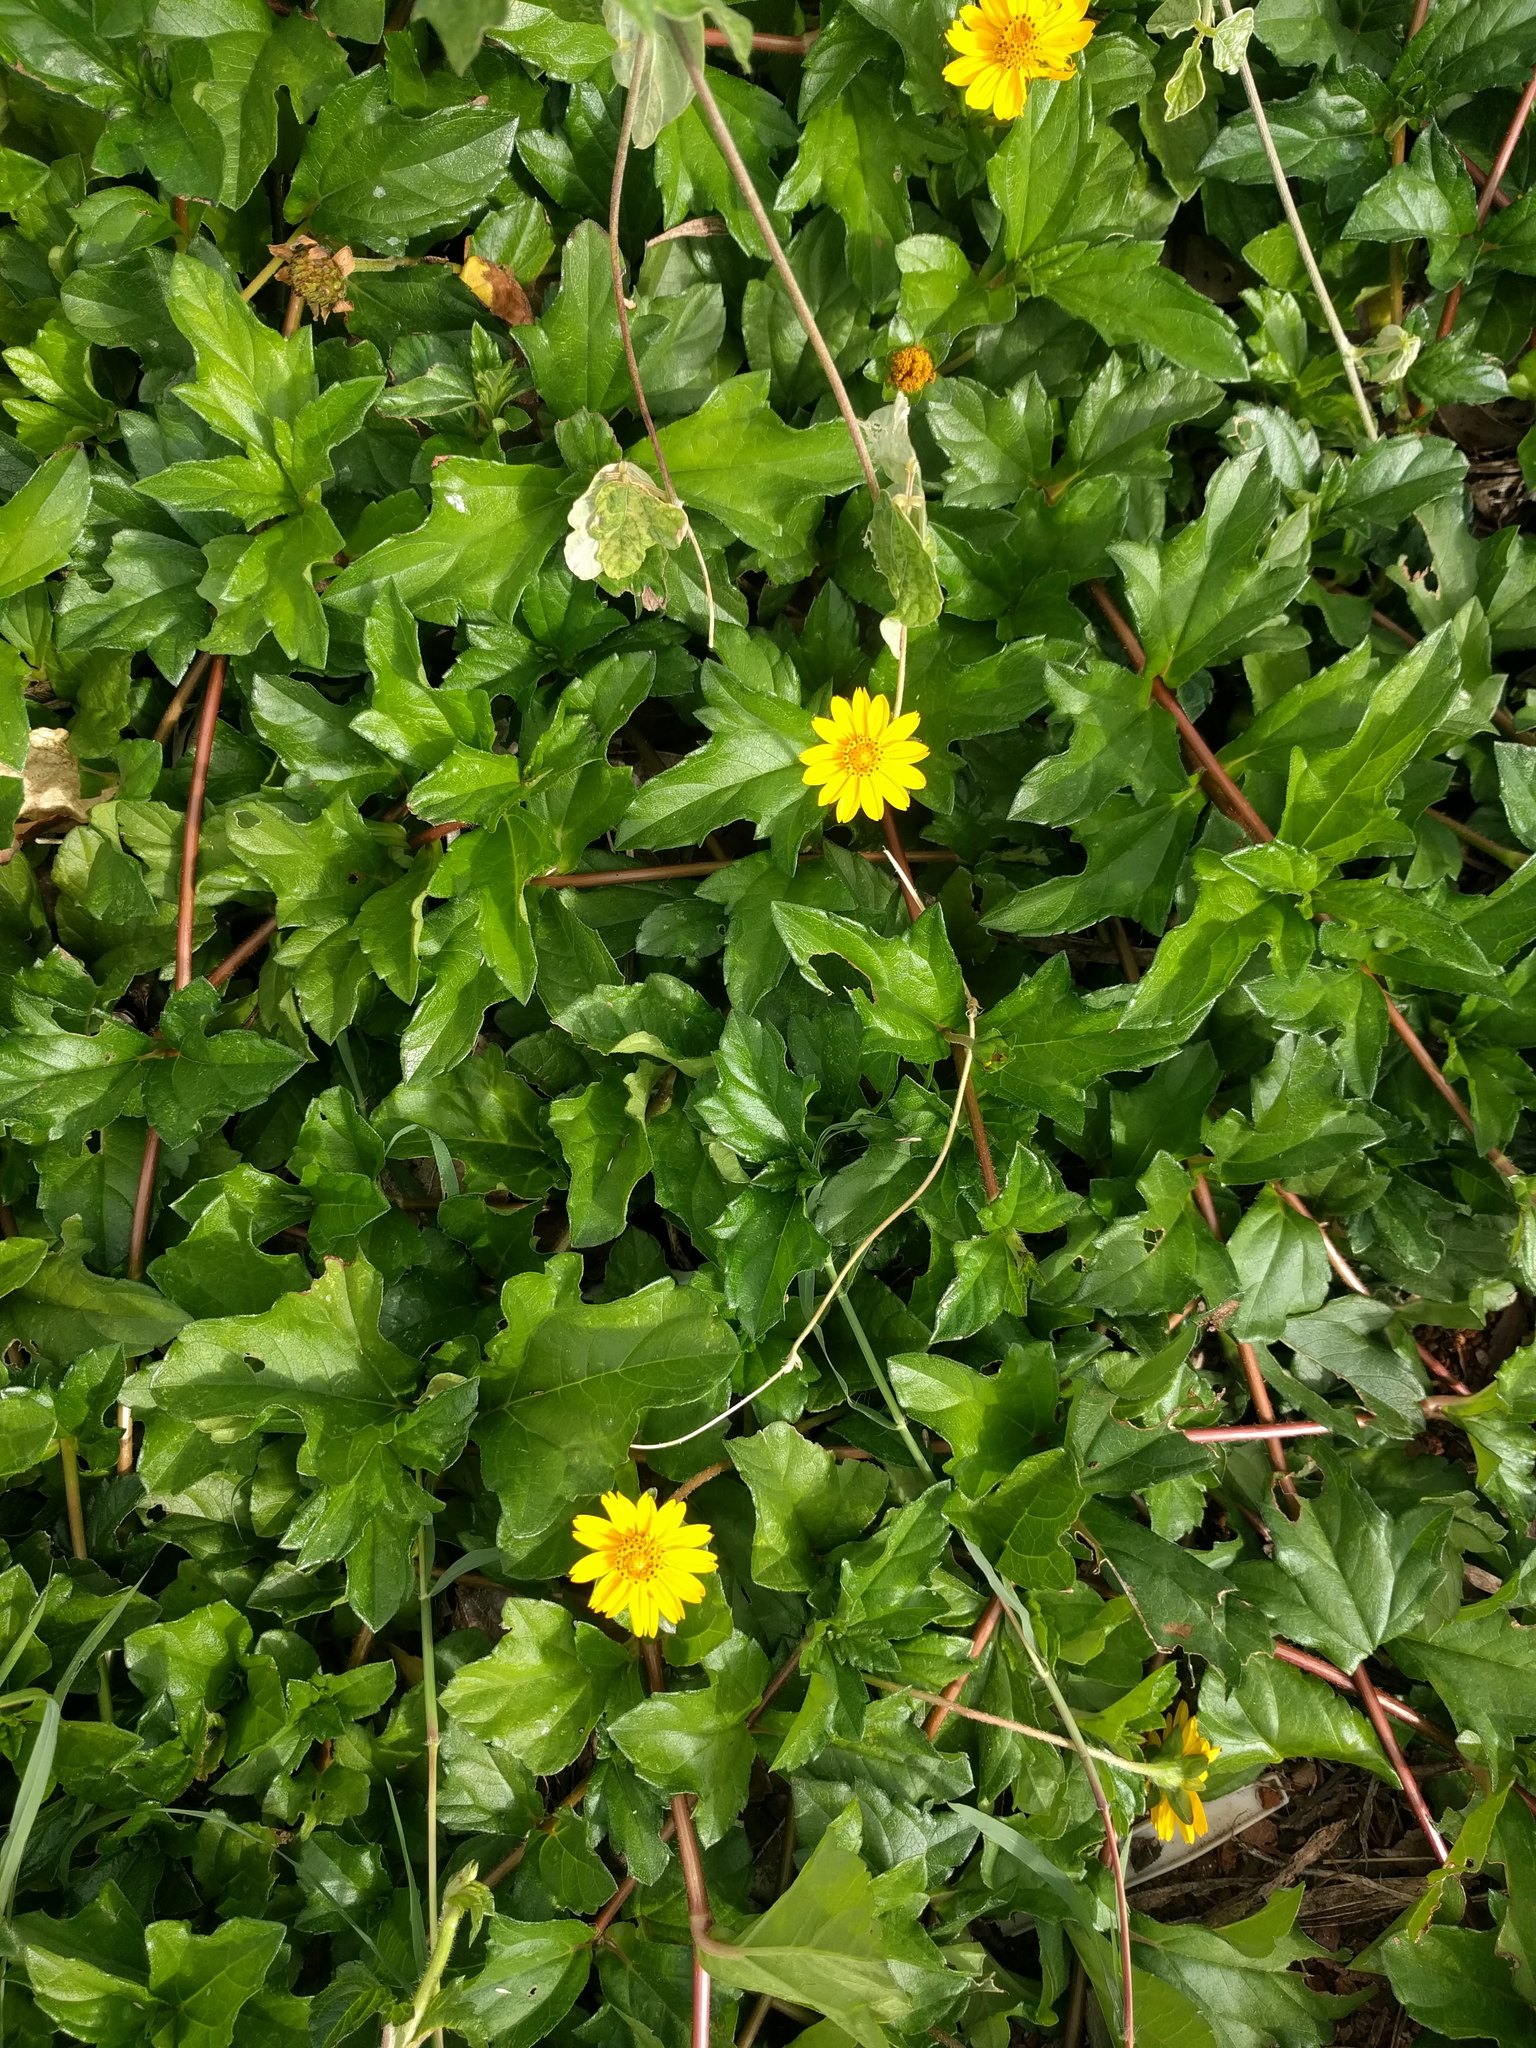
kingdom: Plantae
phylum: Tracheophyta
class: Magnoliopsida
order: Asterales
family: Asteraceae
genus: Sphagneticola
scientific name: Sphagneticola trilobata
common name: Bay biscayne creeping-oxeye
